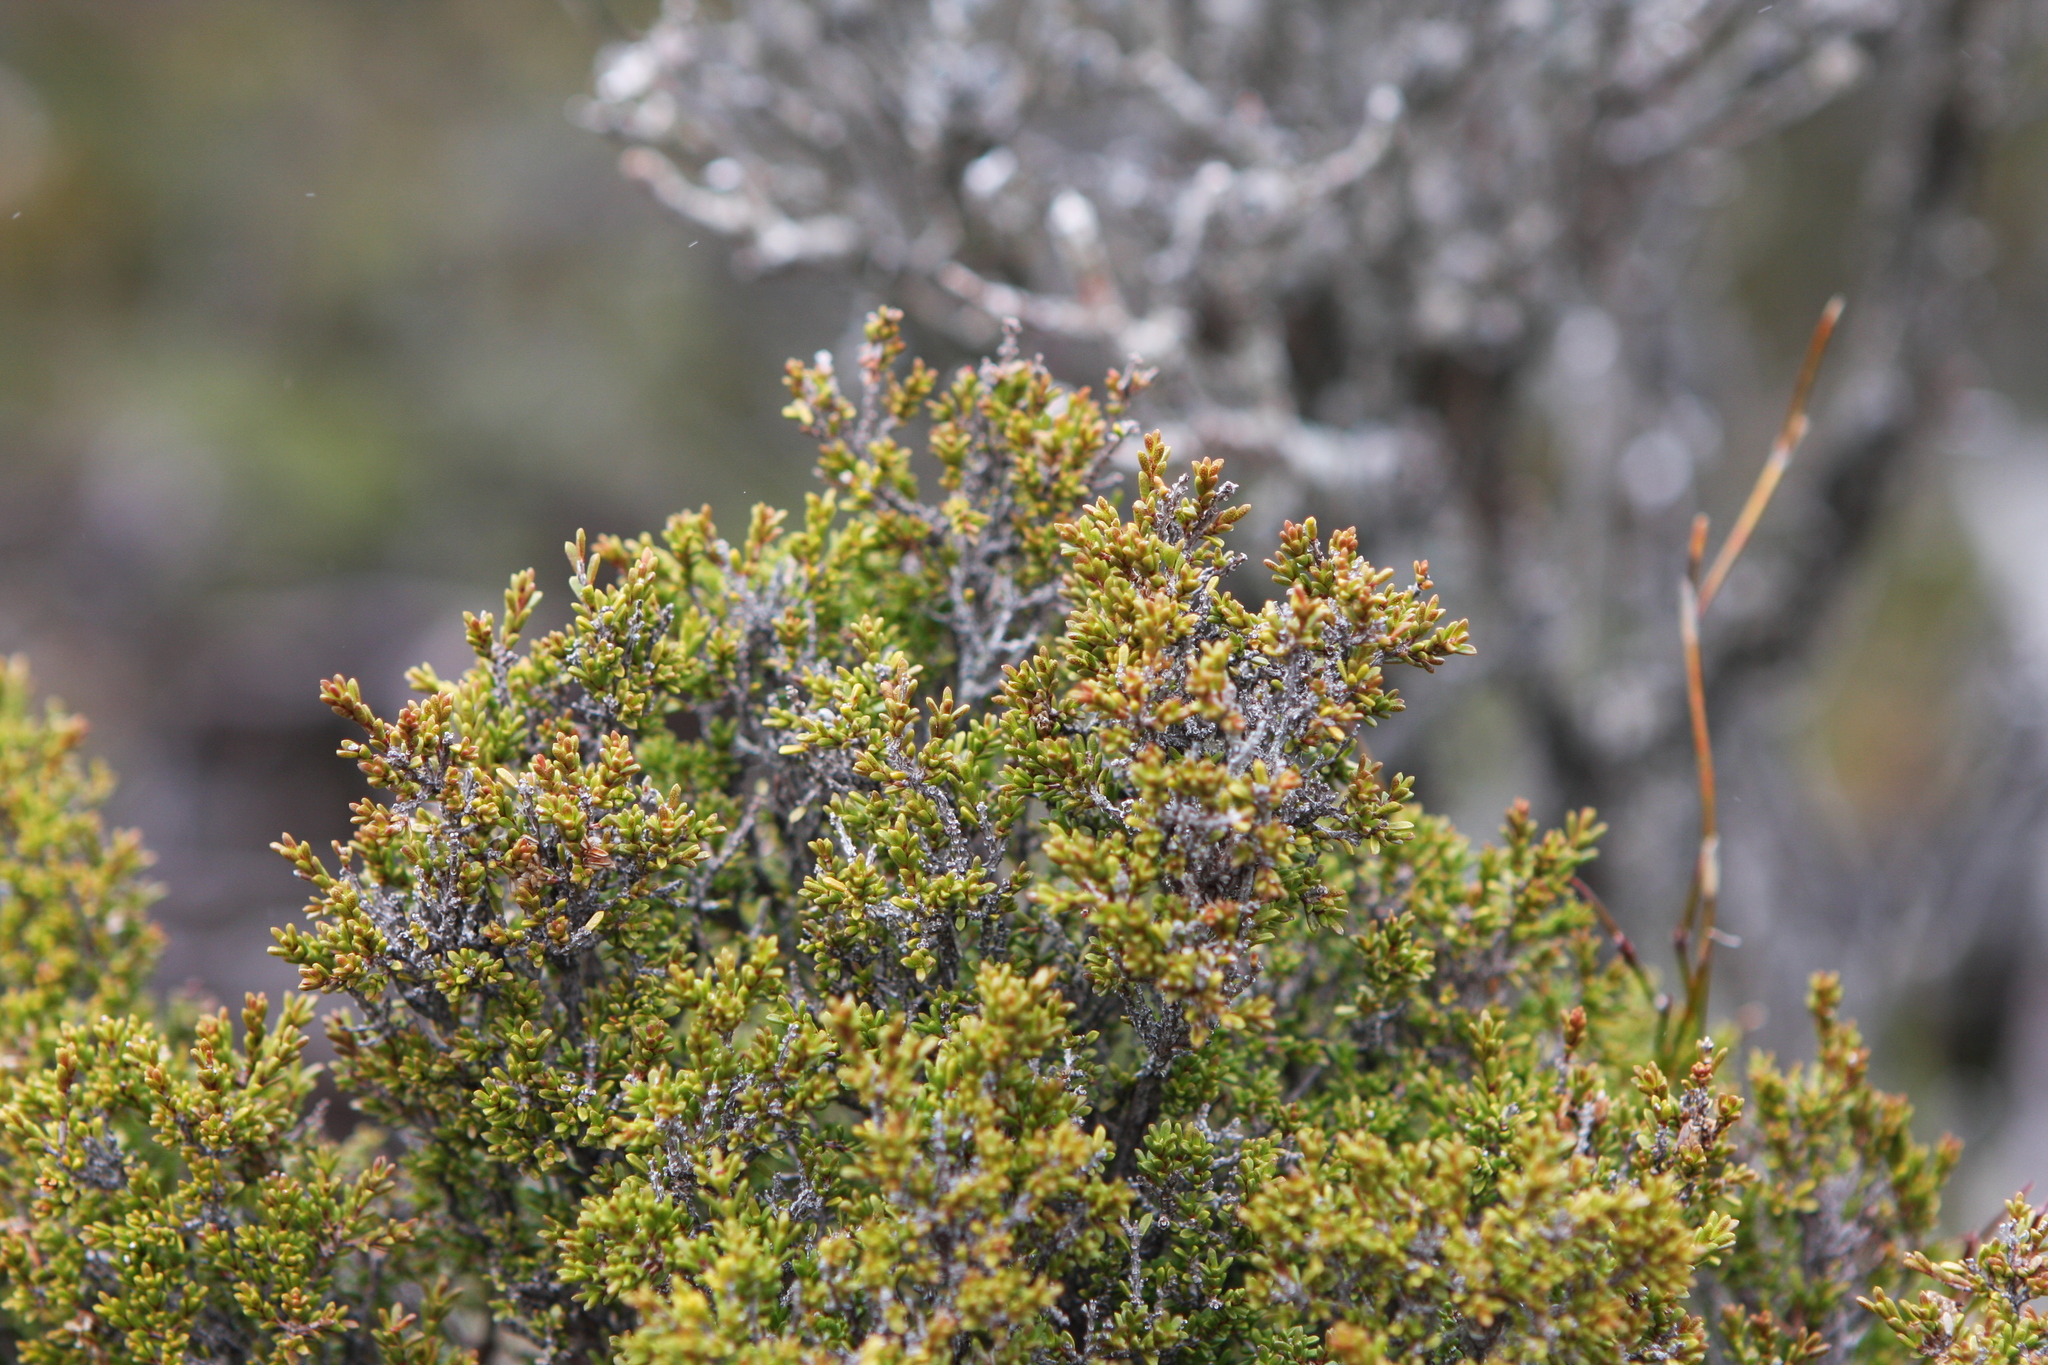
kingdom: Plantae
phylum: Tracheophyta
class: Magnoliopsida
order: Myrtales
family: Myrtaceae
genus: Baeckea
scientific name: Baeckea gunniana
